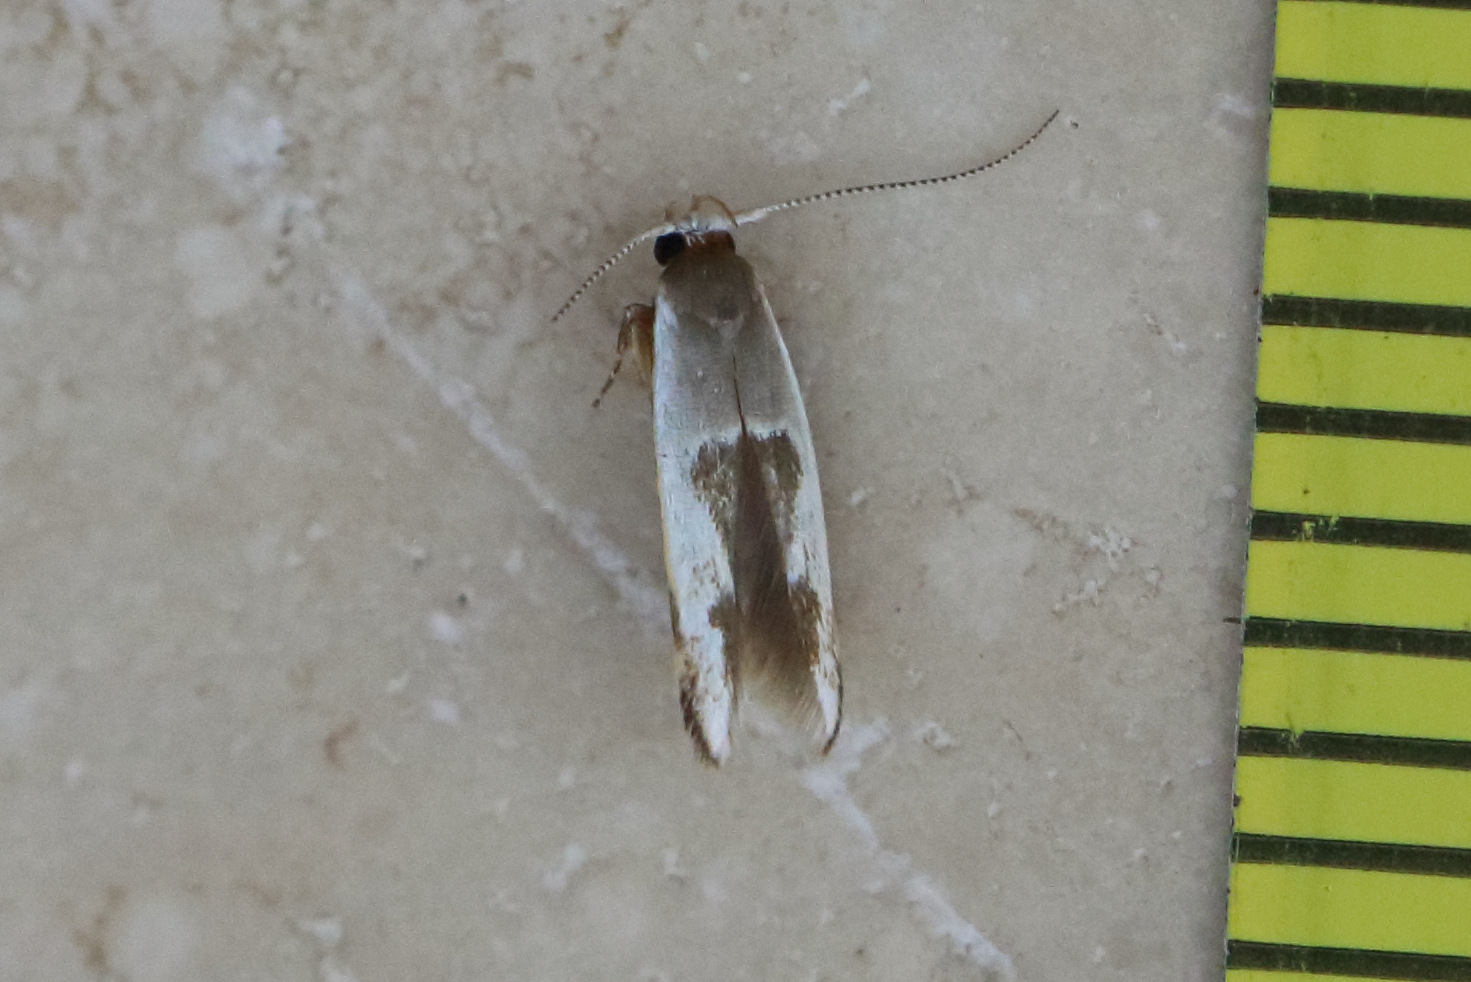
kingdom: Animalia
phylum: Arthropoda
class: Insecta
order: Lepidoptera
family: Stathmopodidae
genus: Stathmopoda
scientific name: Stathmopoda megathyma
